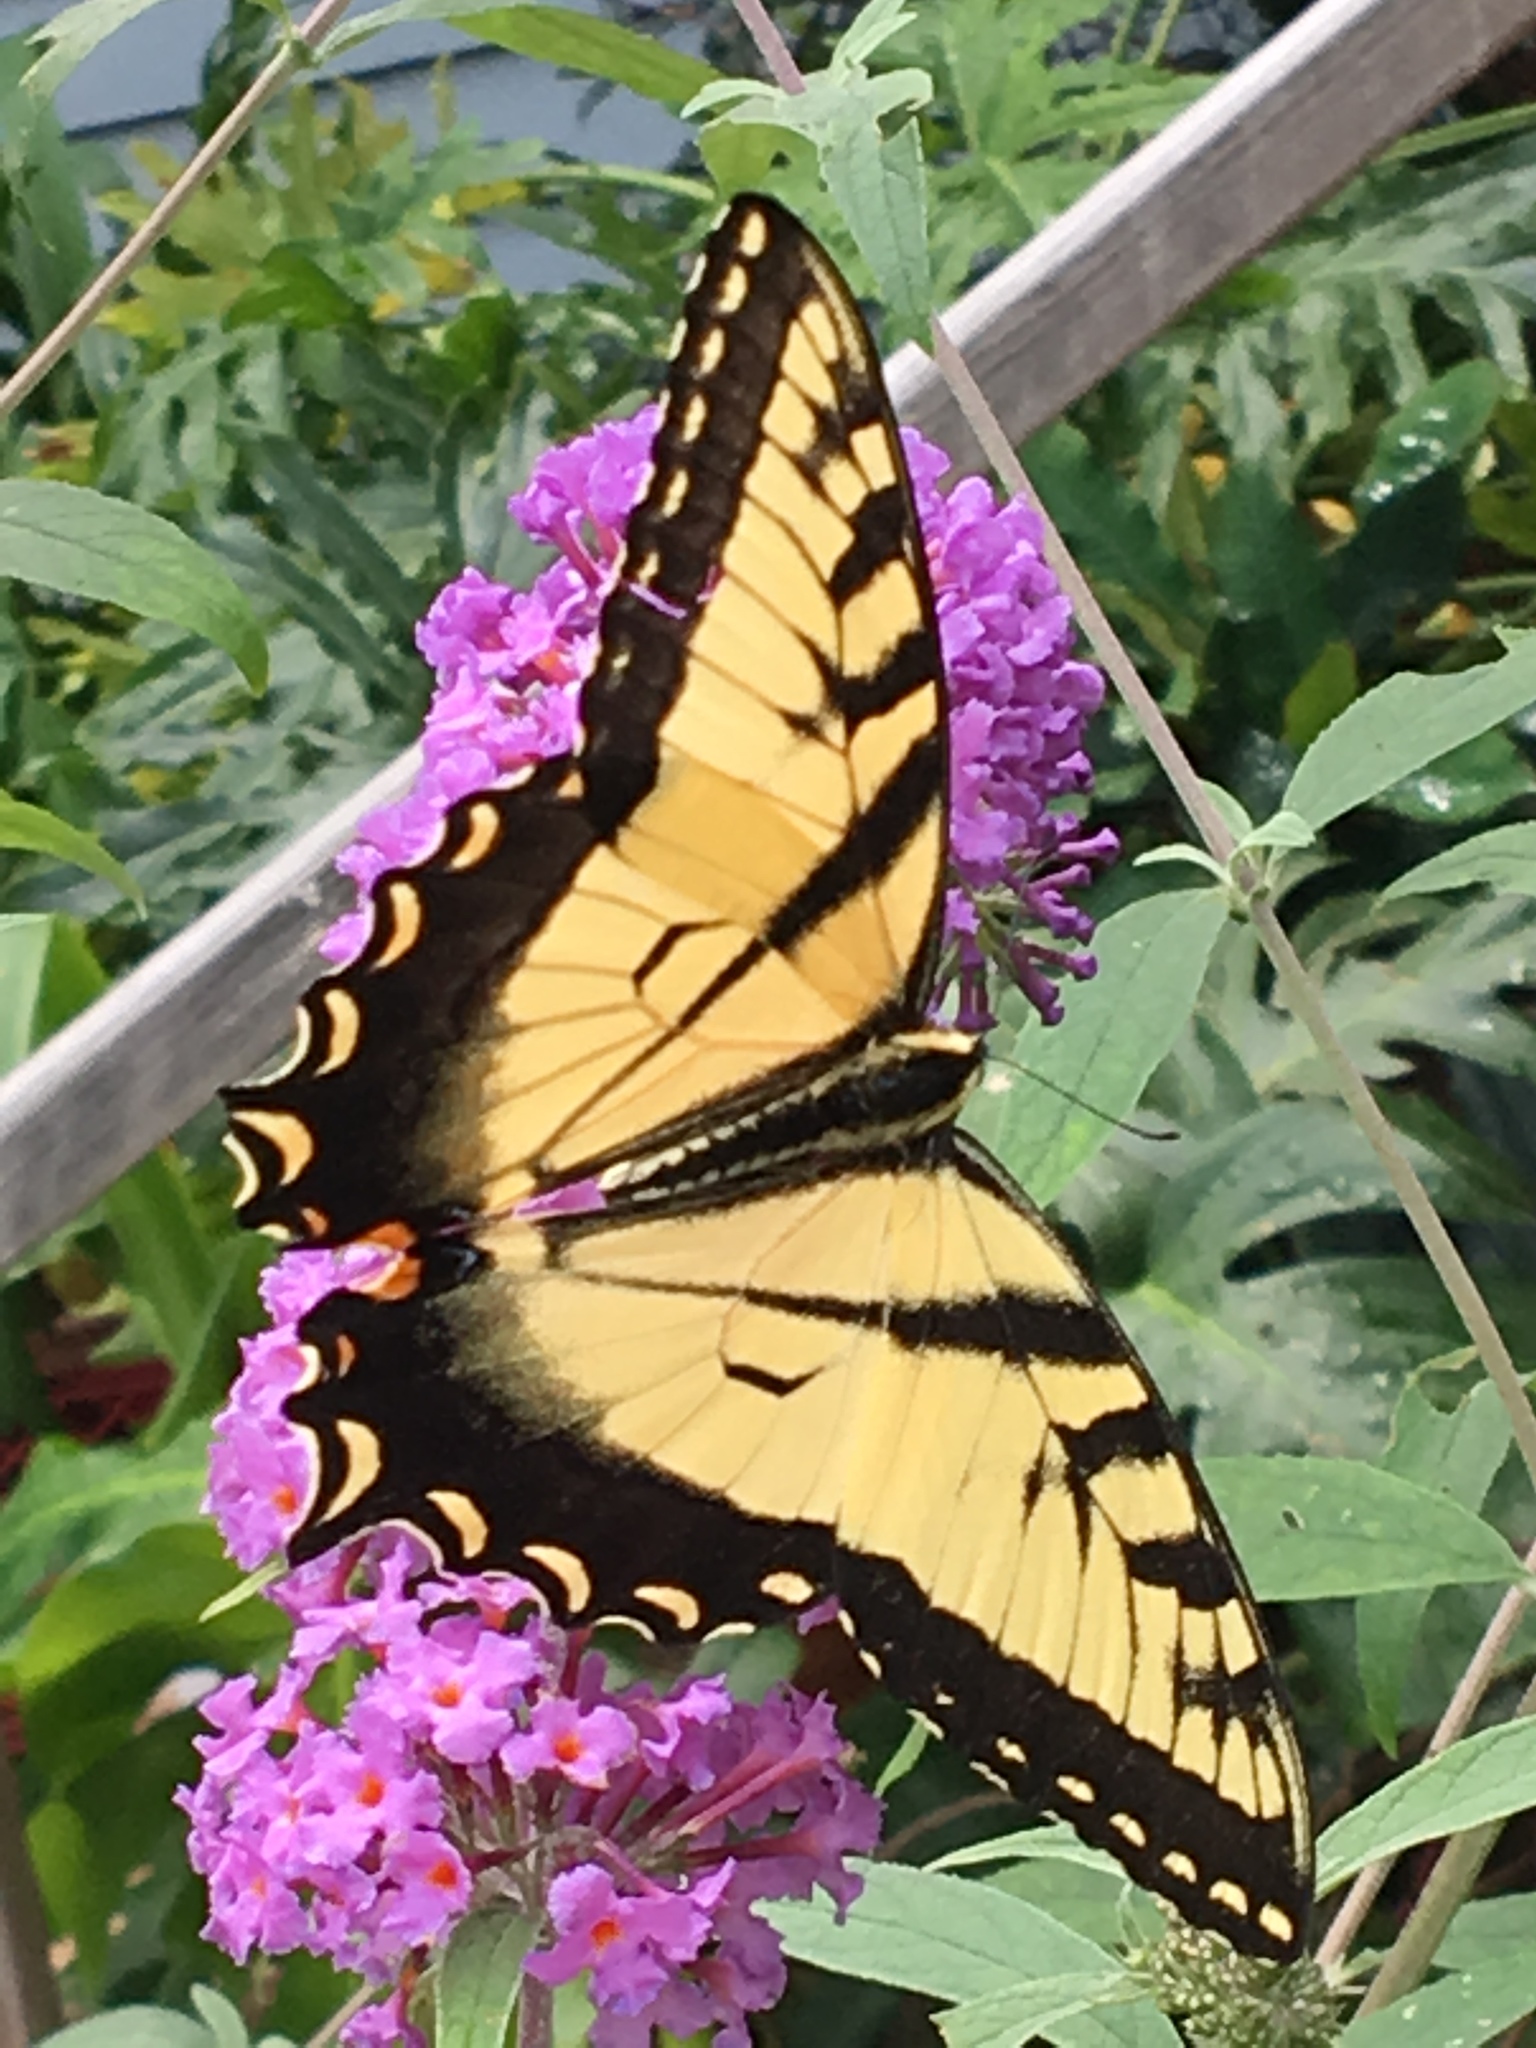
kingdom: Animalia
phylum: Arthropoda
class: Insecta
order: Lepidoptera
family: Papilionidae
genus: Papilio
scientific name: Papilio glaucus
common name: Tiger swallowtail
